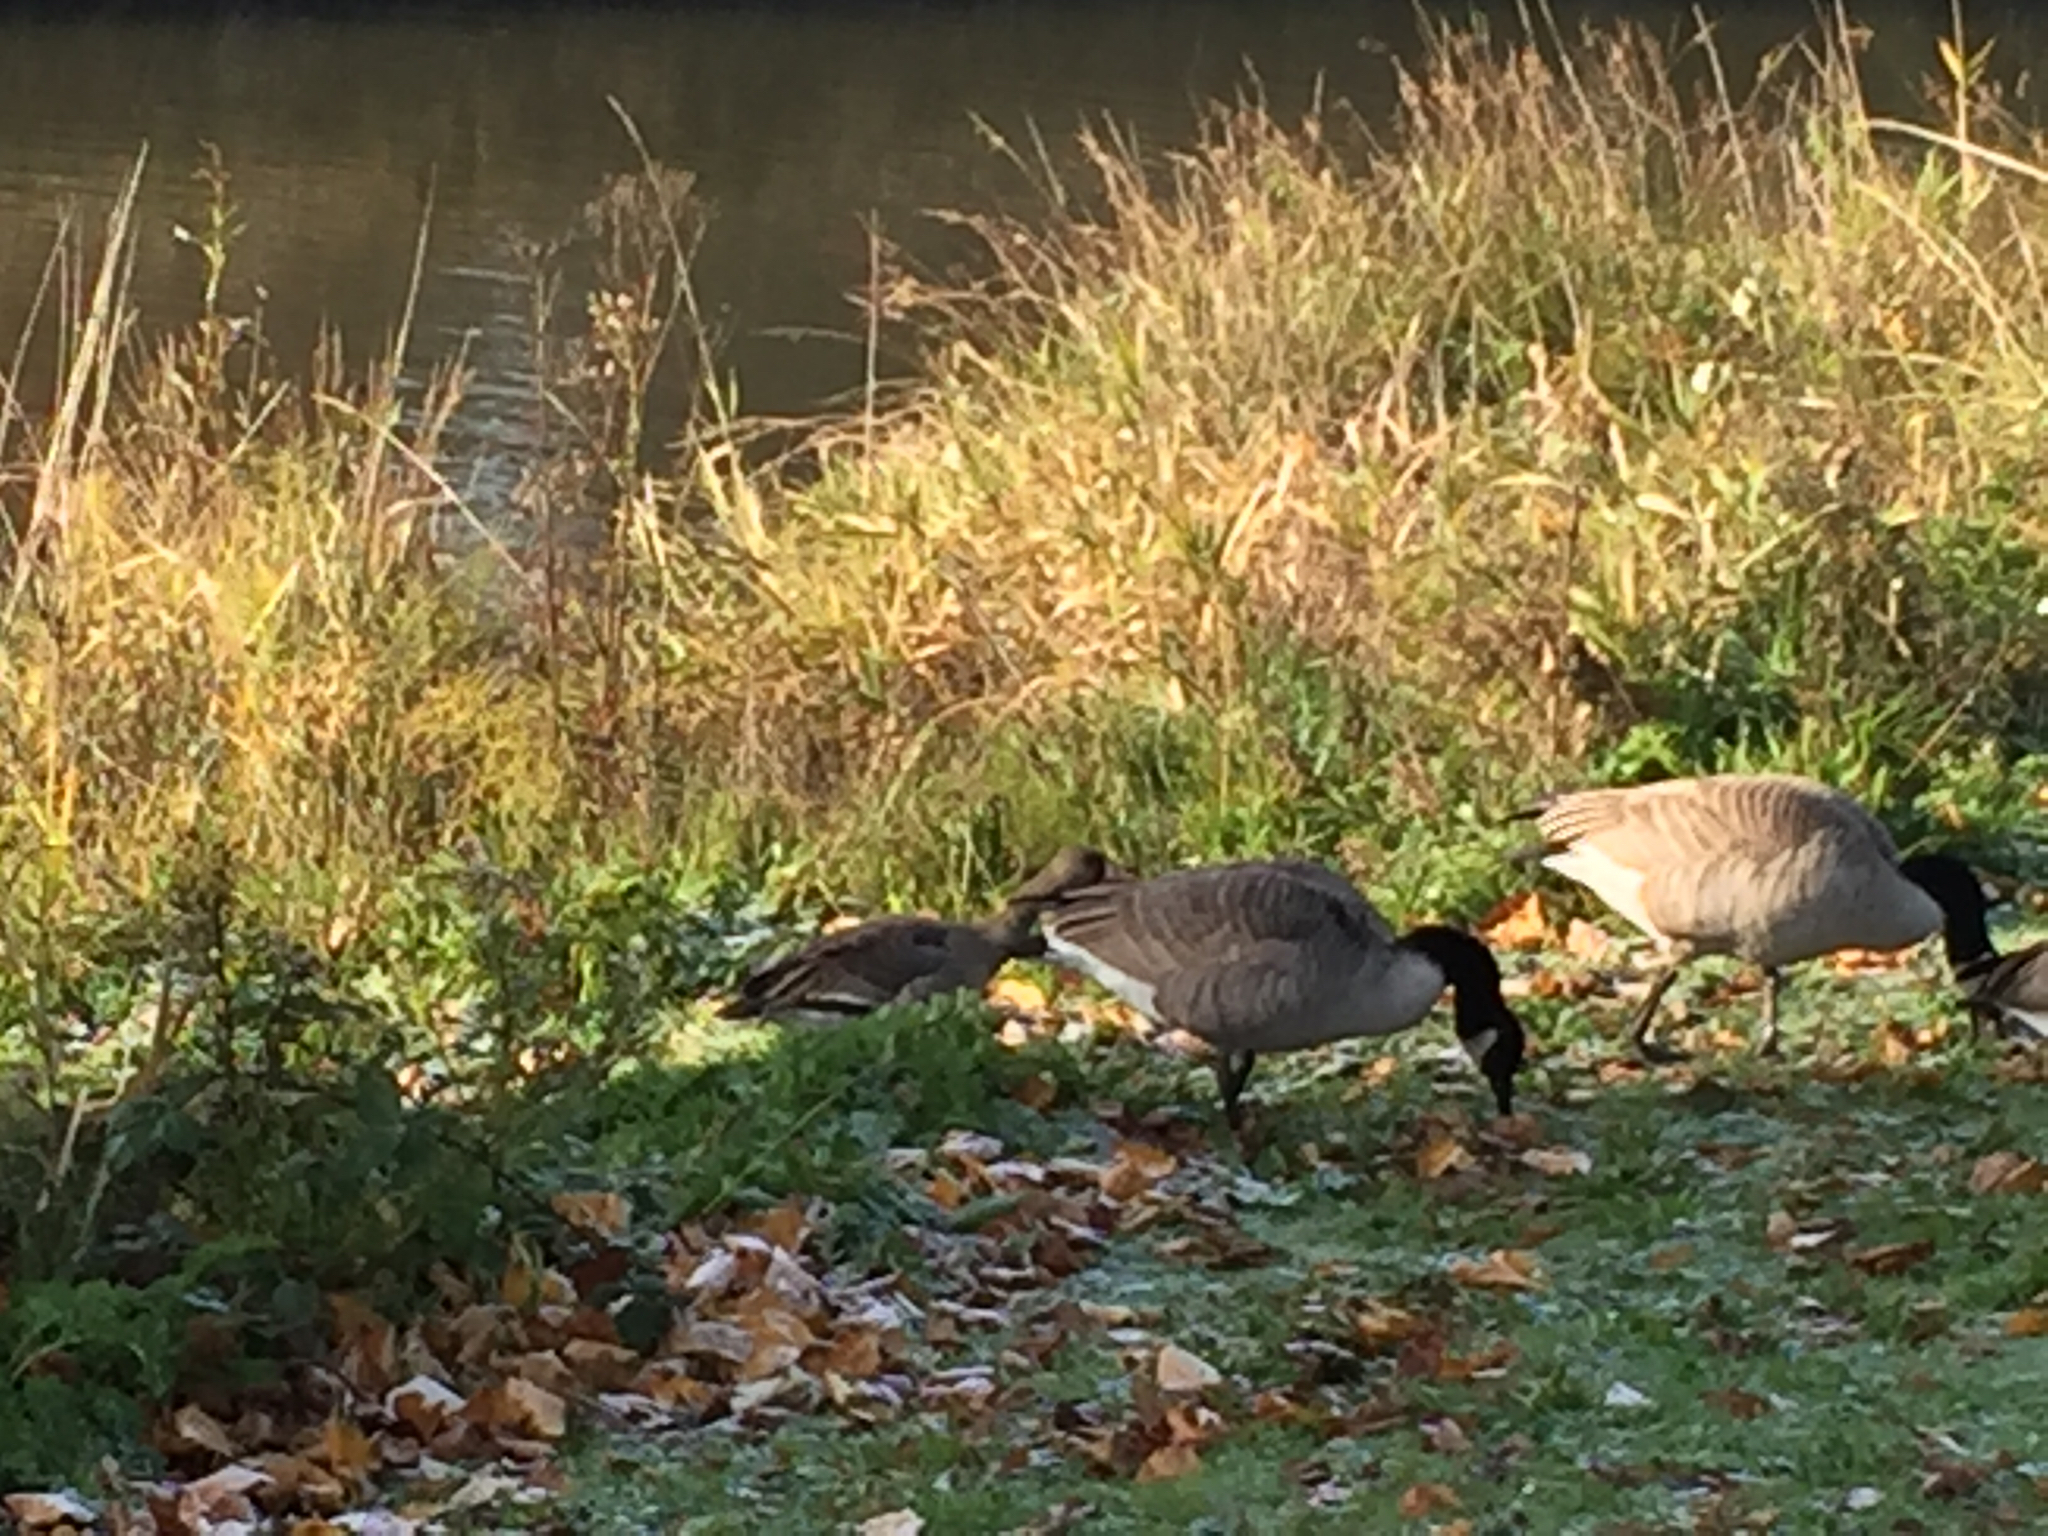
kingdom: Animalia
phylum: Chordata
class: Aves
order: Anseriformes
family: Anatidae
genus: Anser
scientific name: Anser albifrons
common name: Greater white-fronted goose
